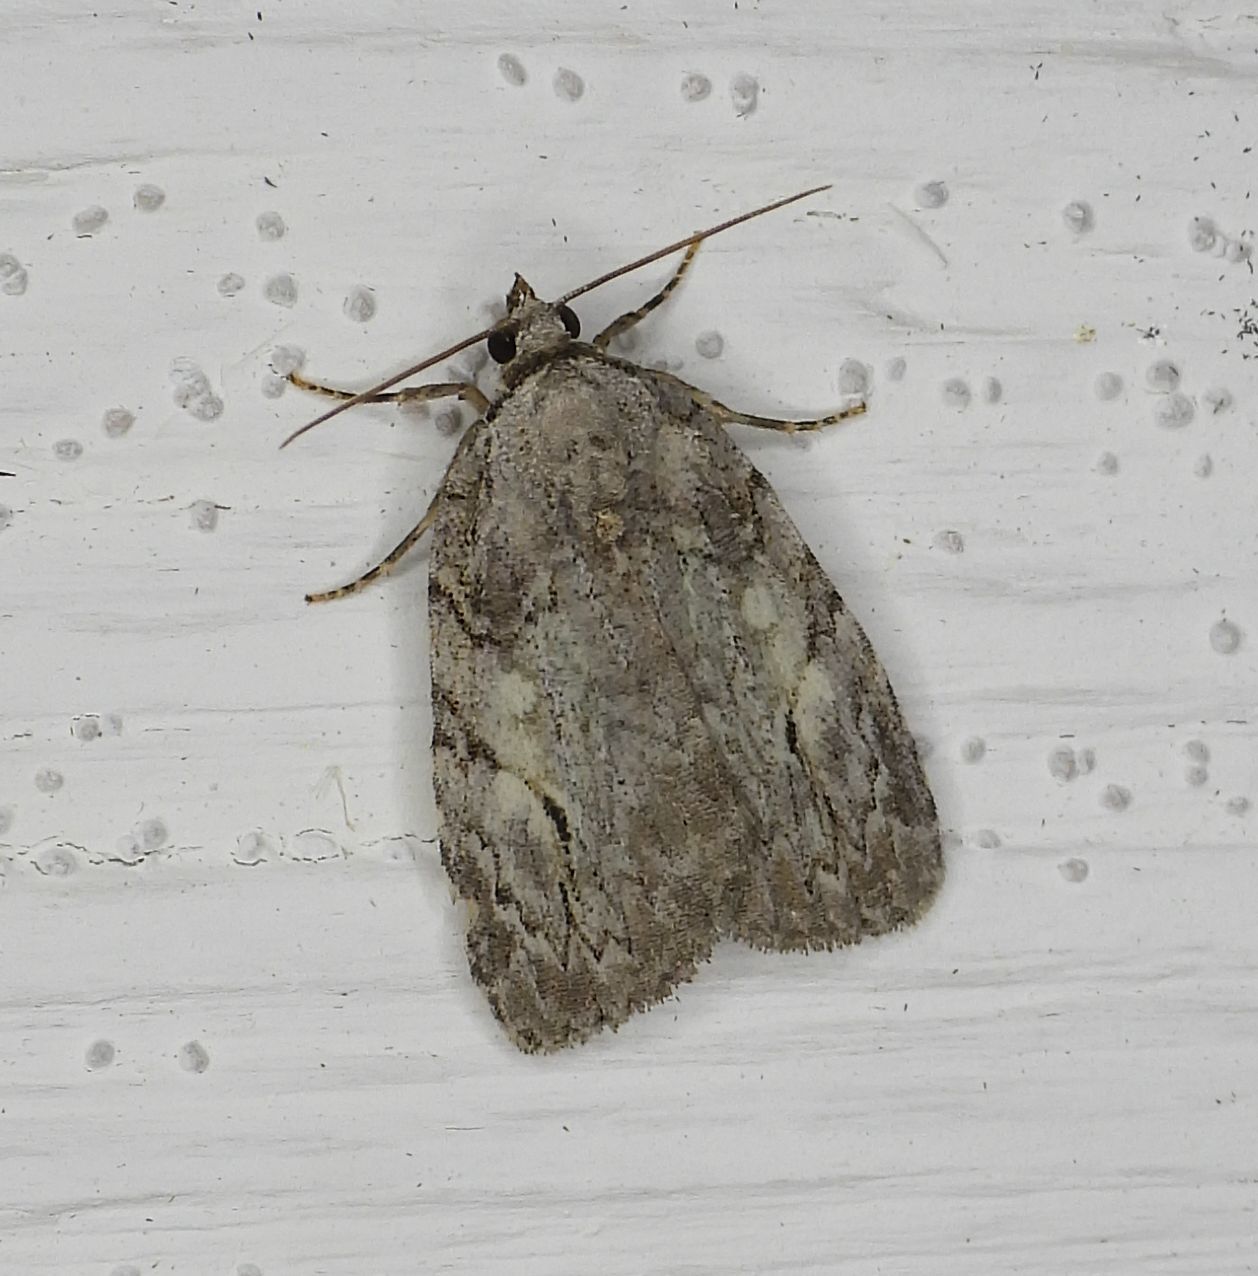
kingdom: Animalia
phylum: Arthropoda
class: Insecta
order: Lepidoptera
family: Noctuidae
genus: Balsa
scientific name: Balsa labecula
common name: White-blotched balsa moth
